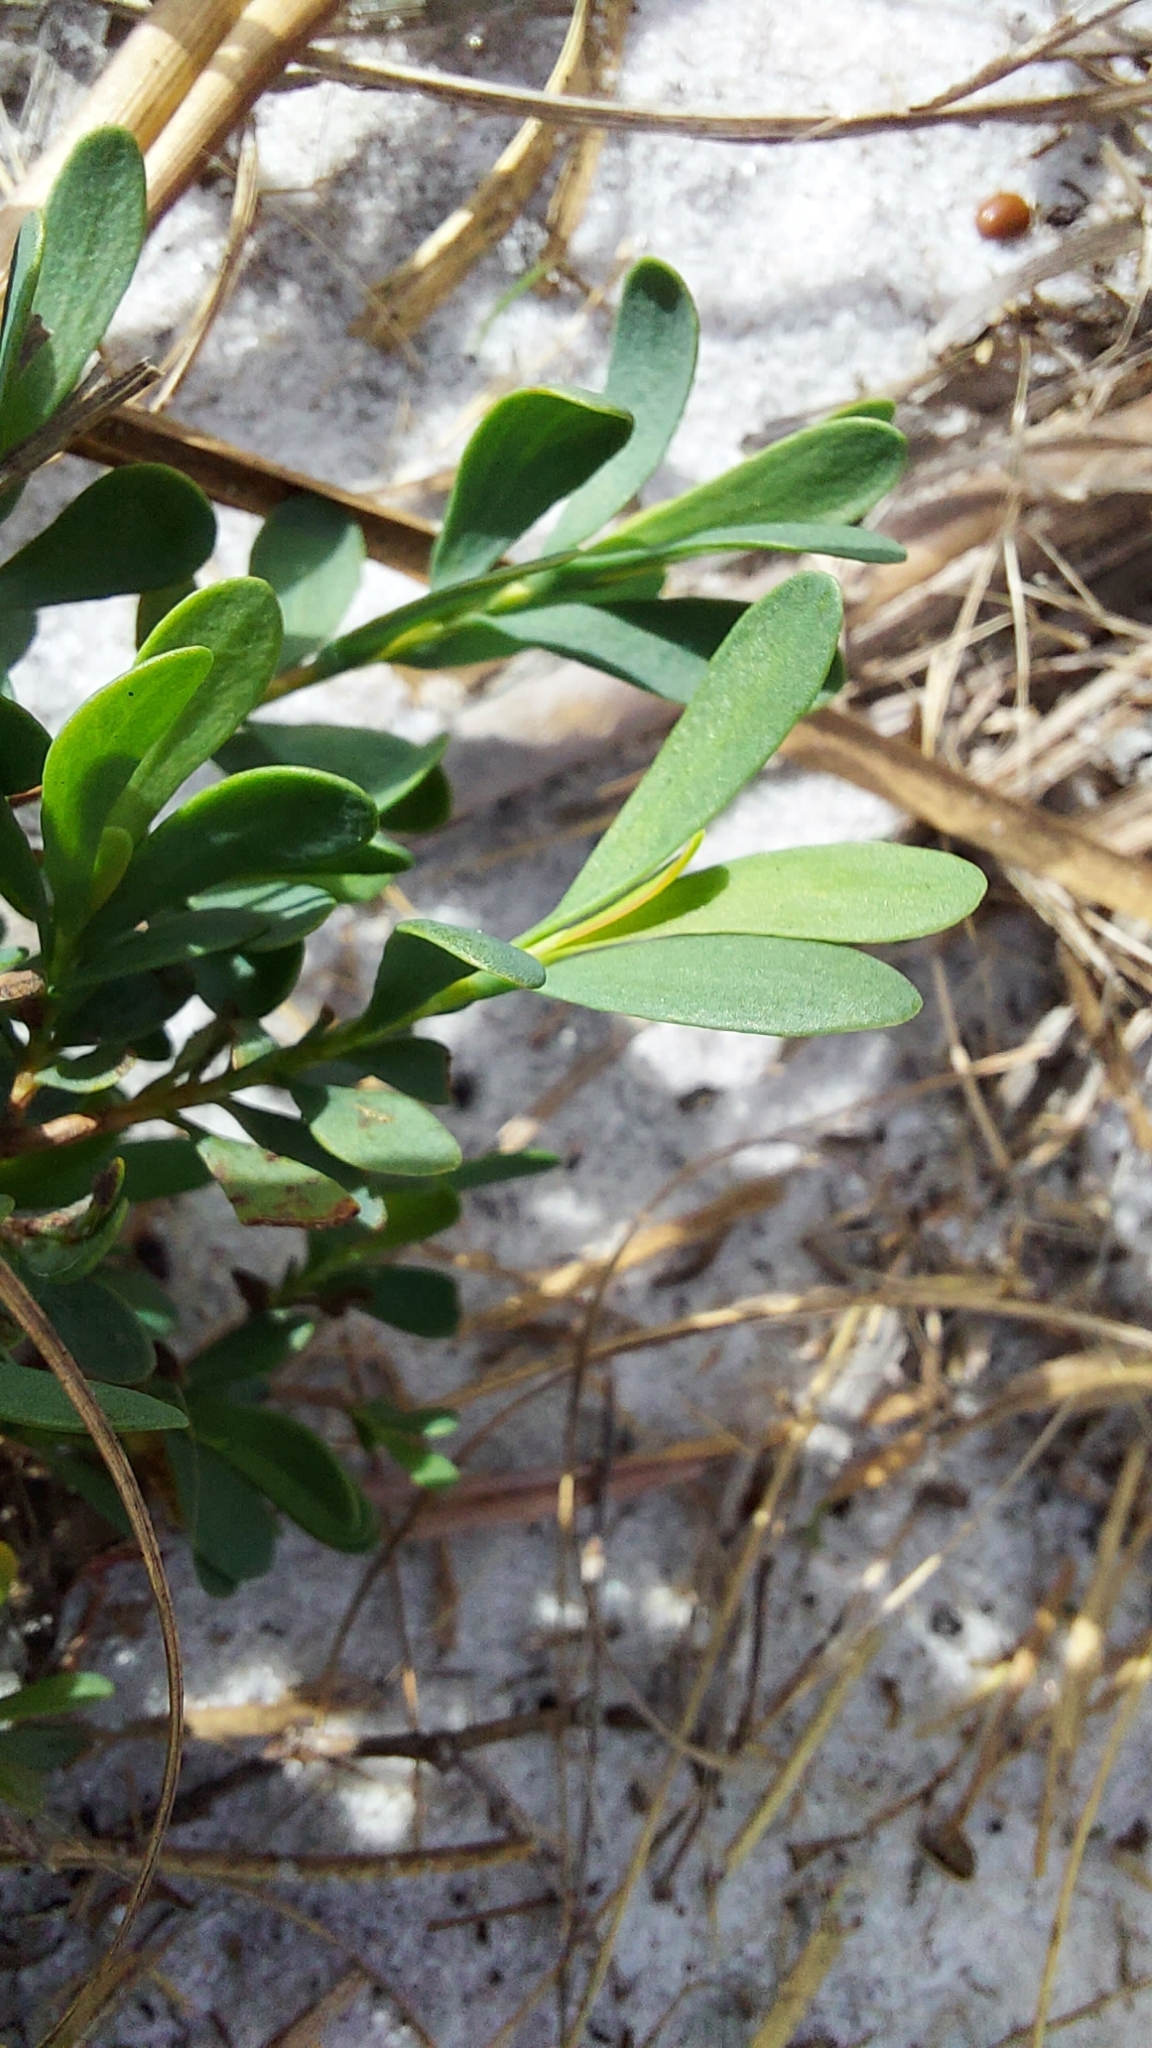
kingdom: Plantae
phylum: Tracheophyta
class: Magnoliopsida
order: Caryophyllales
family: Polygonaceae
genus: Polygonella
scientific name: Polygonella polygama
